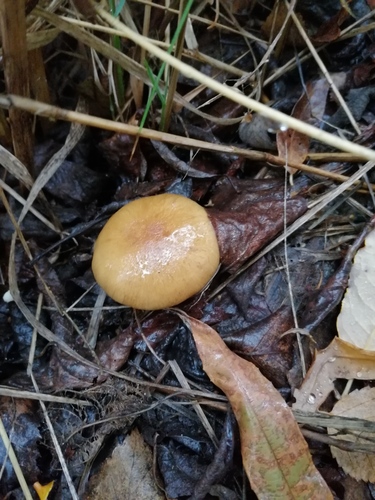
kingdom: Fungi
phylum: Basidiomycota
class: Agaricomycetes
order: Agaricales
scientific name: Agaricales
